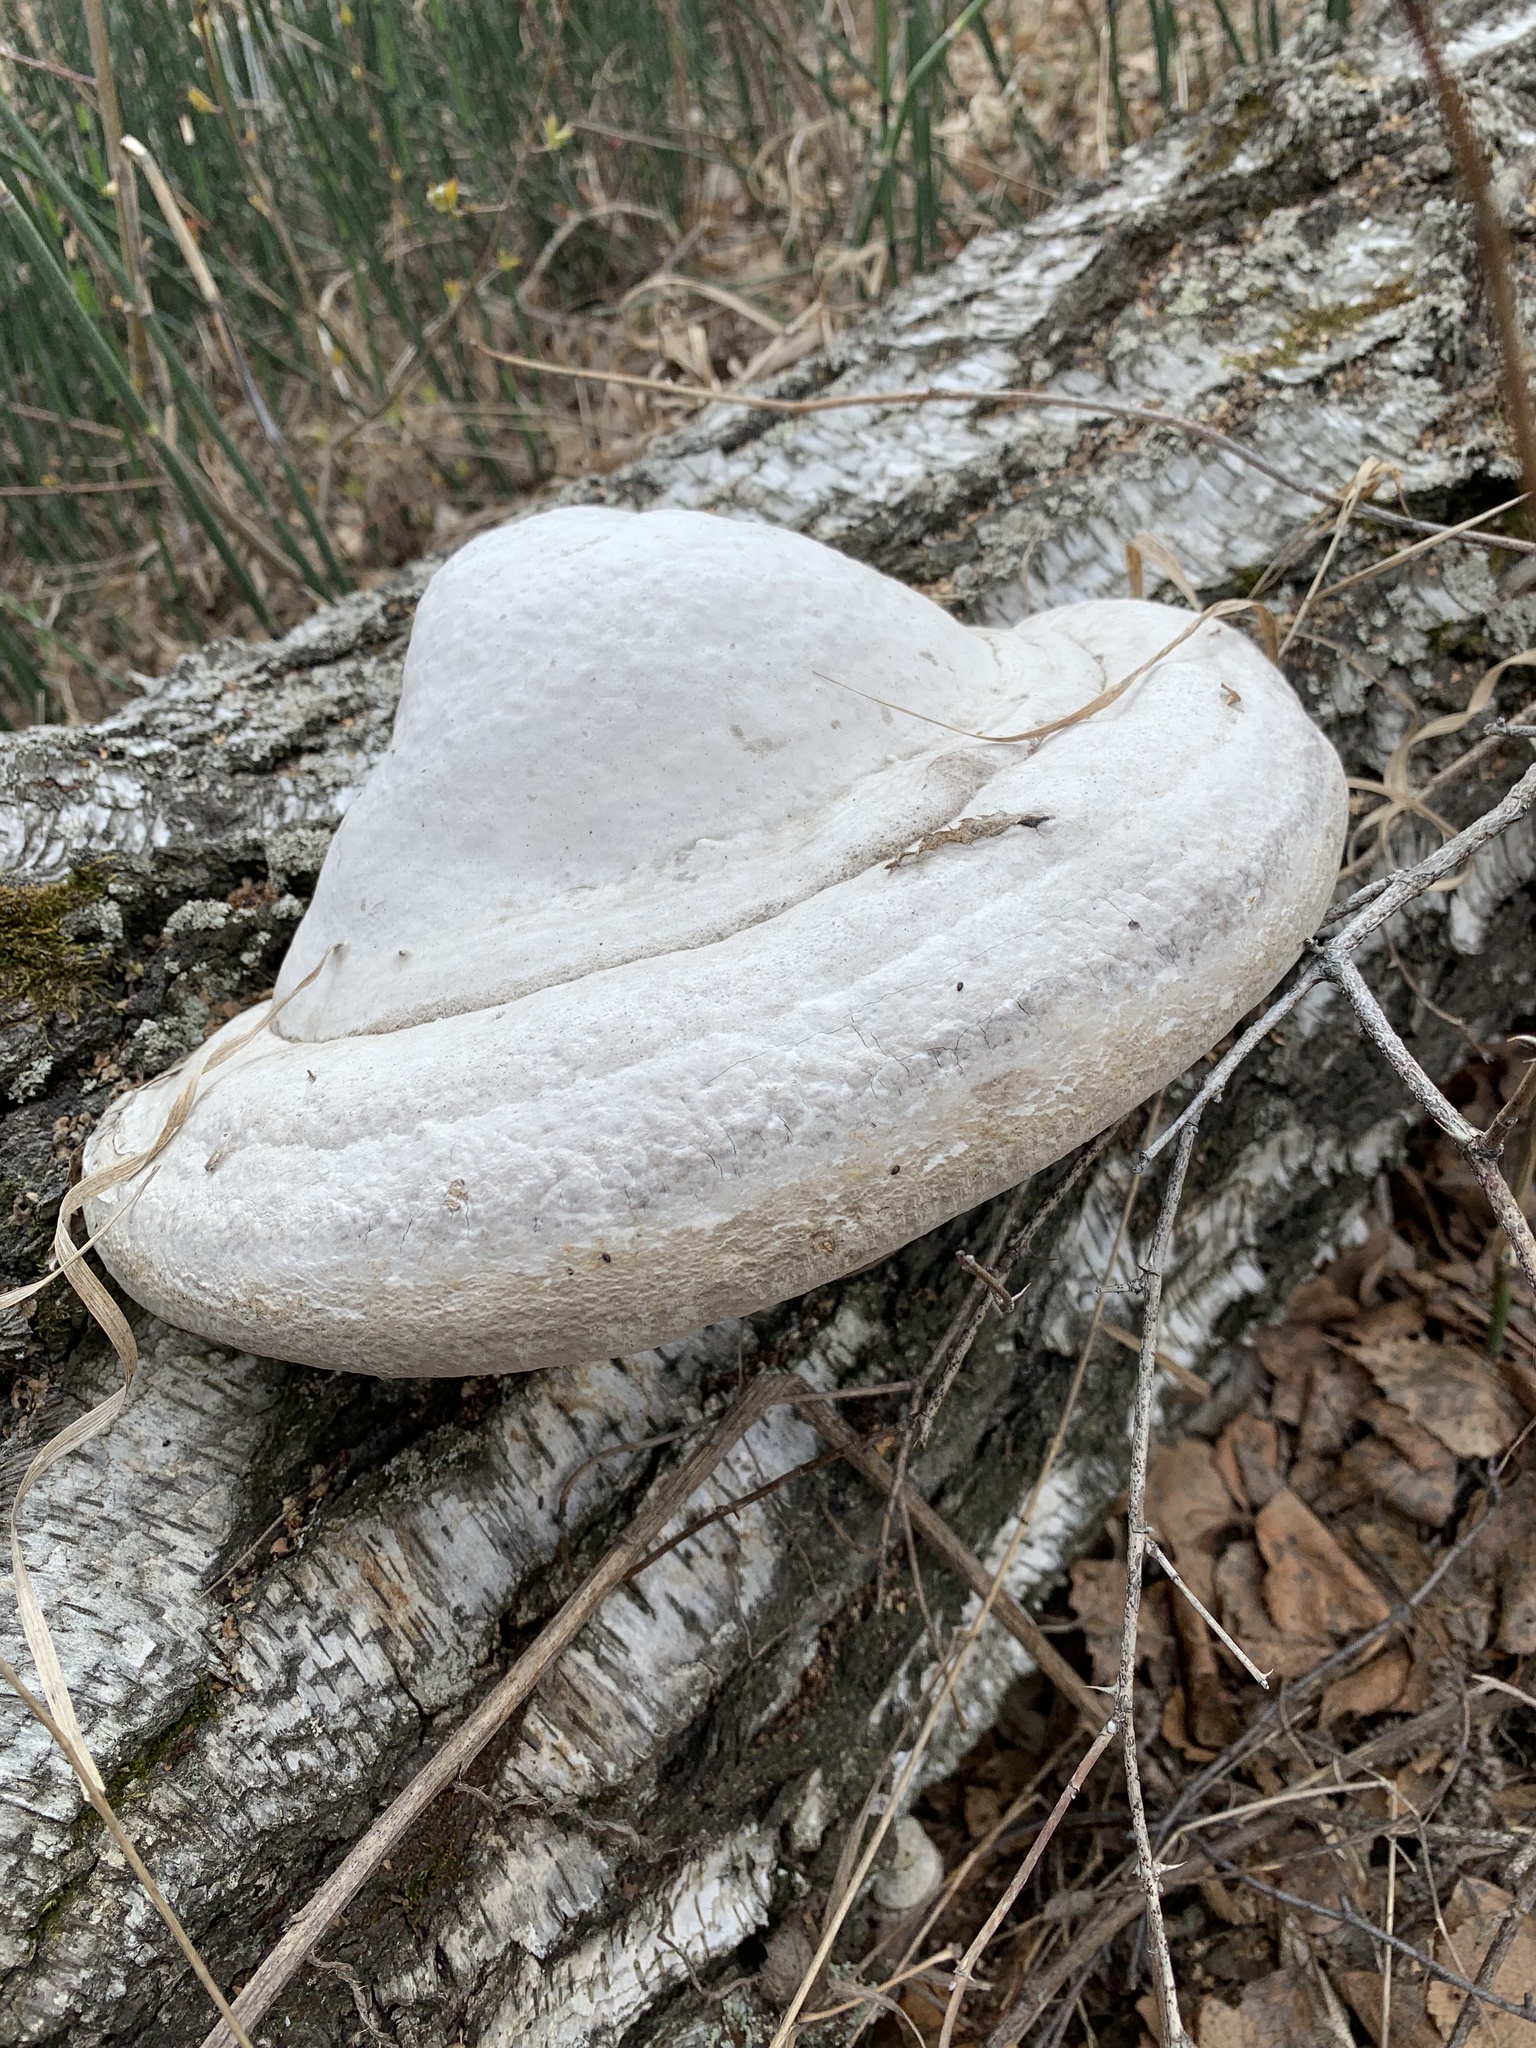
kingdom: Fungi
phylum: Basidiomycota
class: Agaricomycetes
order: Polyporales
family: Polyporaceae
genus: Fomes
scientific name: Fomes fomentarius
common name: Hoof fungus
